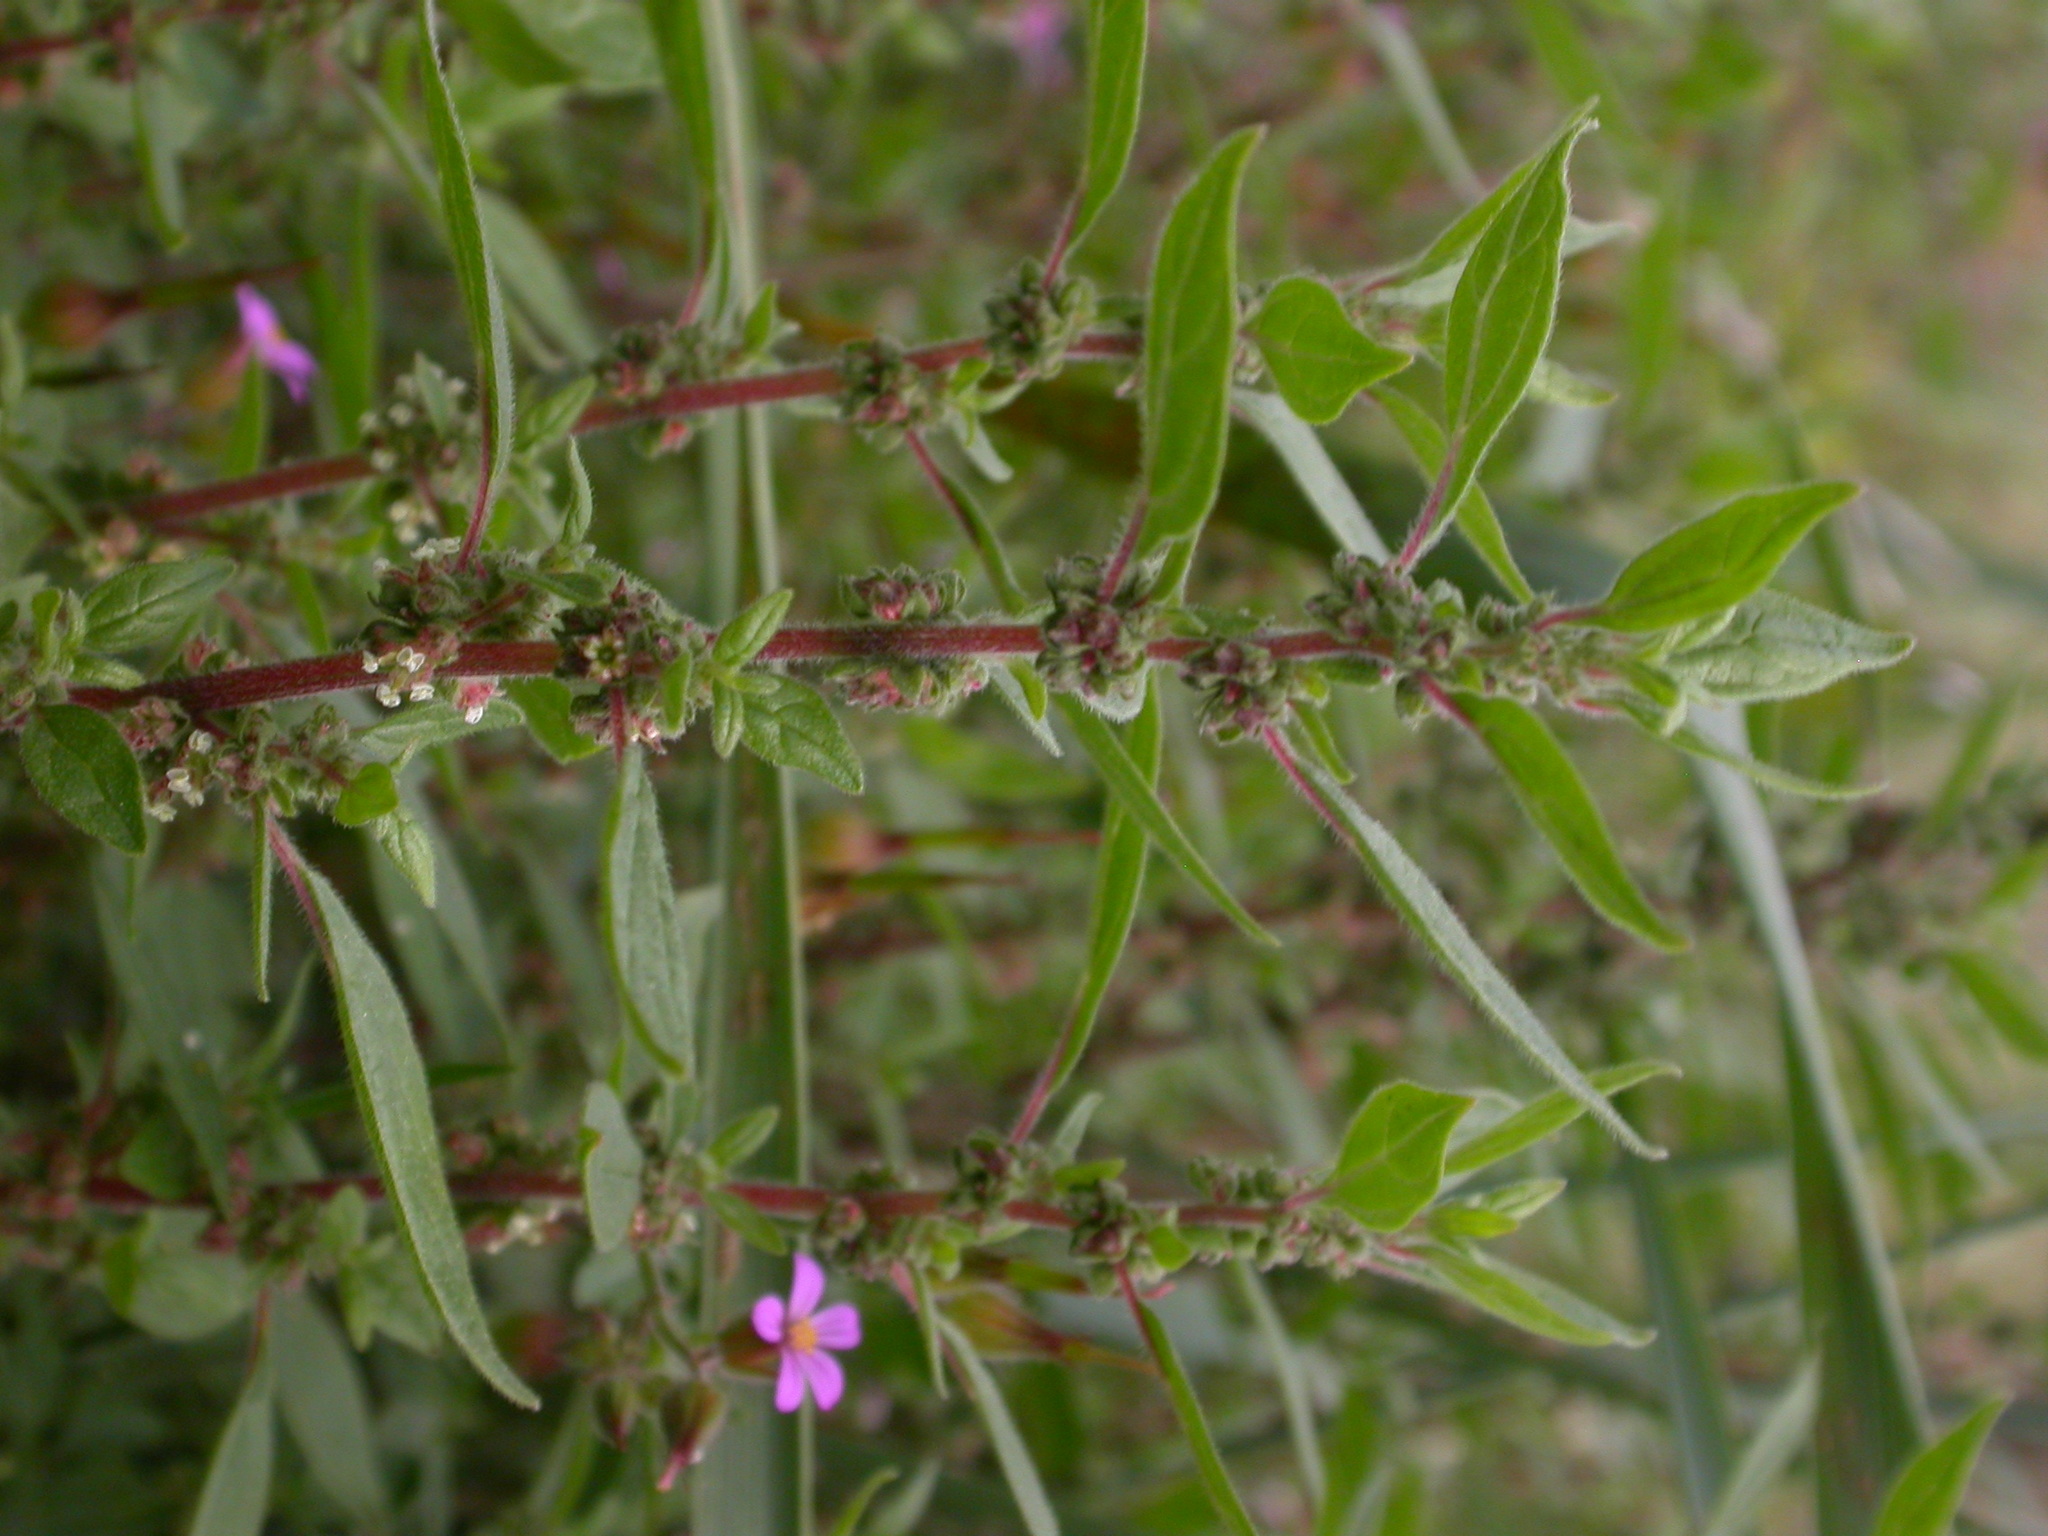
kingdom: Plantae
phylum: Tracheophyta
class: Magnoliopsida
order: Rosales
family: Urticaceae
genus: Parietaria
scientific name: Parietaria judaica
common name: Pellitory-of-the-wall
